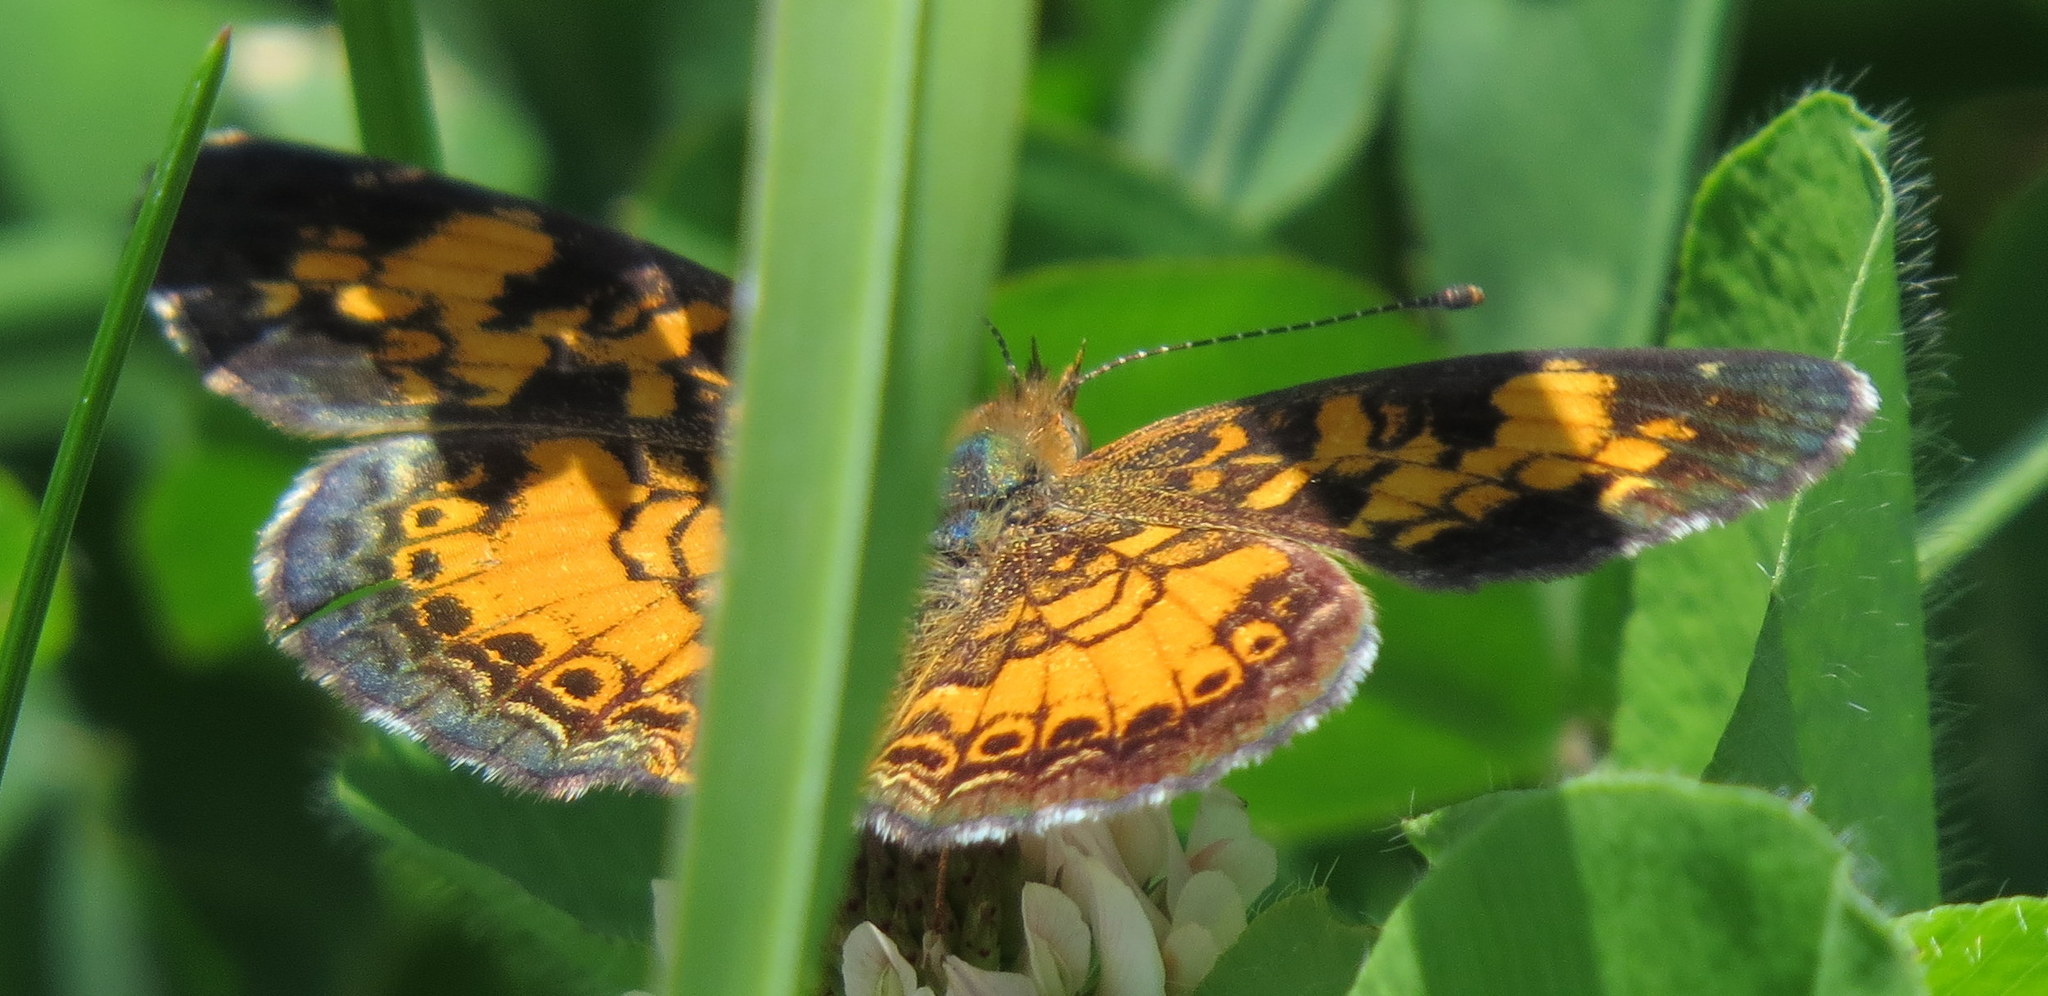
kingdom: Animalia
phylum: Arthropoda
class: Insecta
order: Lepidoptera
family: Nymphalidae
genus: Phyciodes
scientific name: Phyciodes tharos
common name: Pearl crescent
